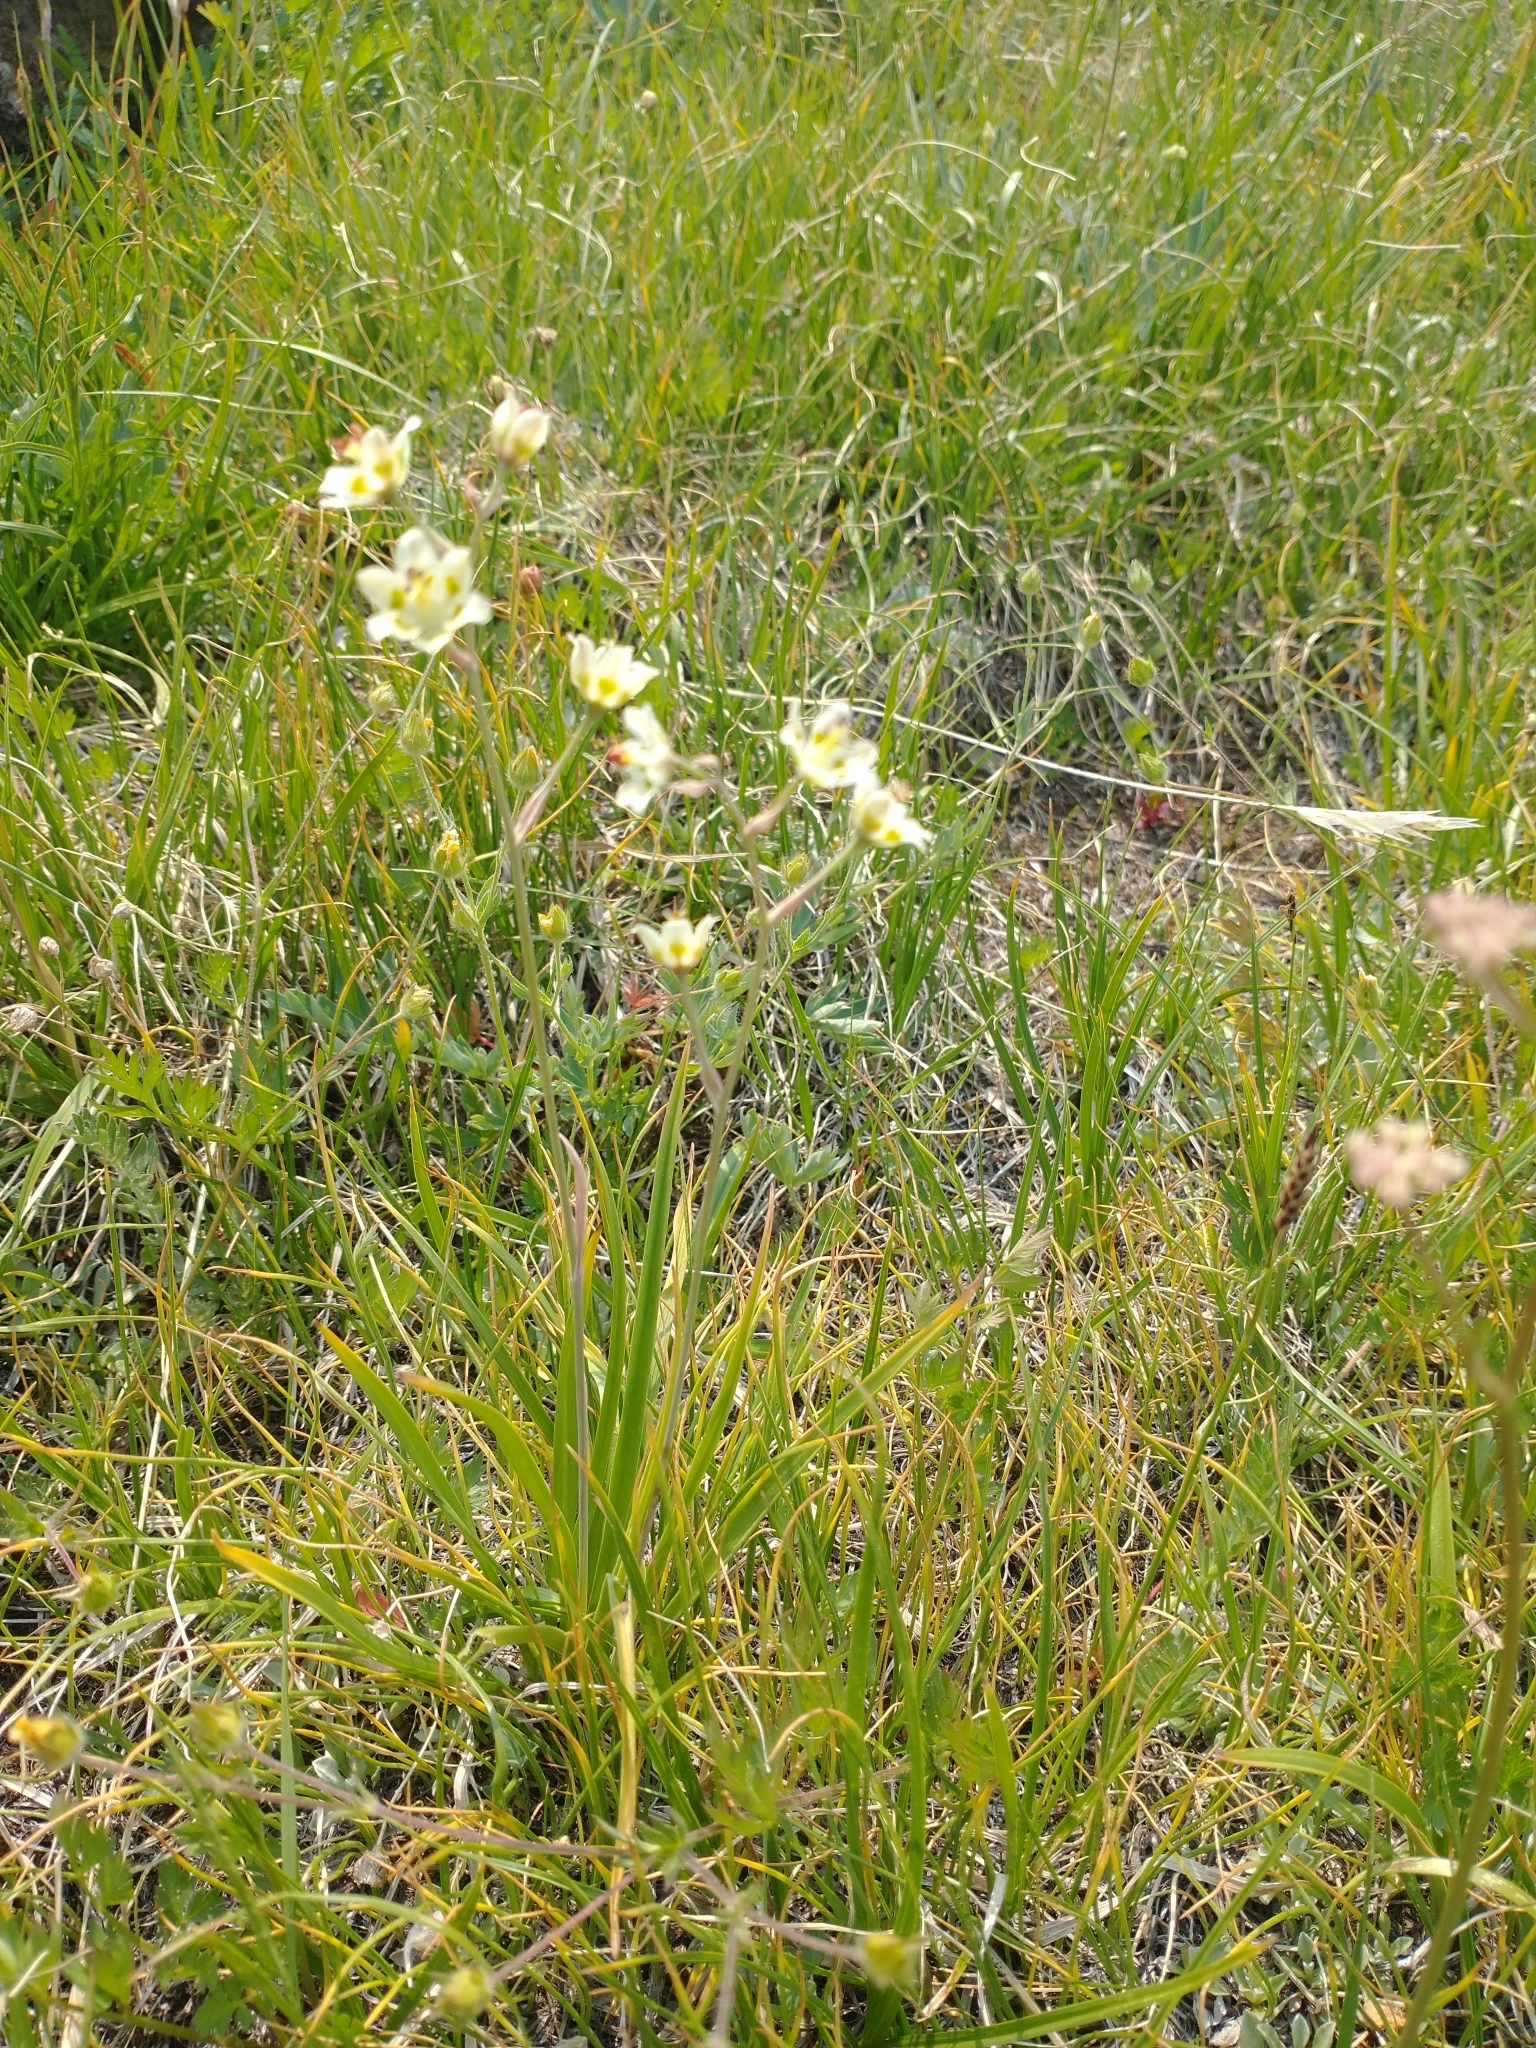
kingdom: Plantae
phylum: Tracheophyta
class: Liliopsida
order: Liliales
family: Melanthiaceae
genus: Anticlea
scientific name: Anticlea elegans
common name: Mountain death camas
